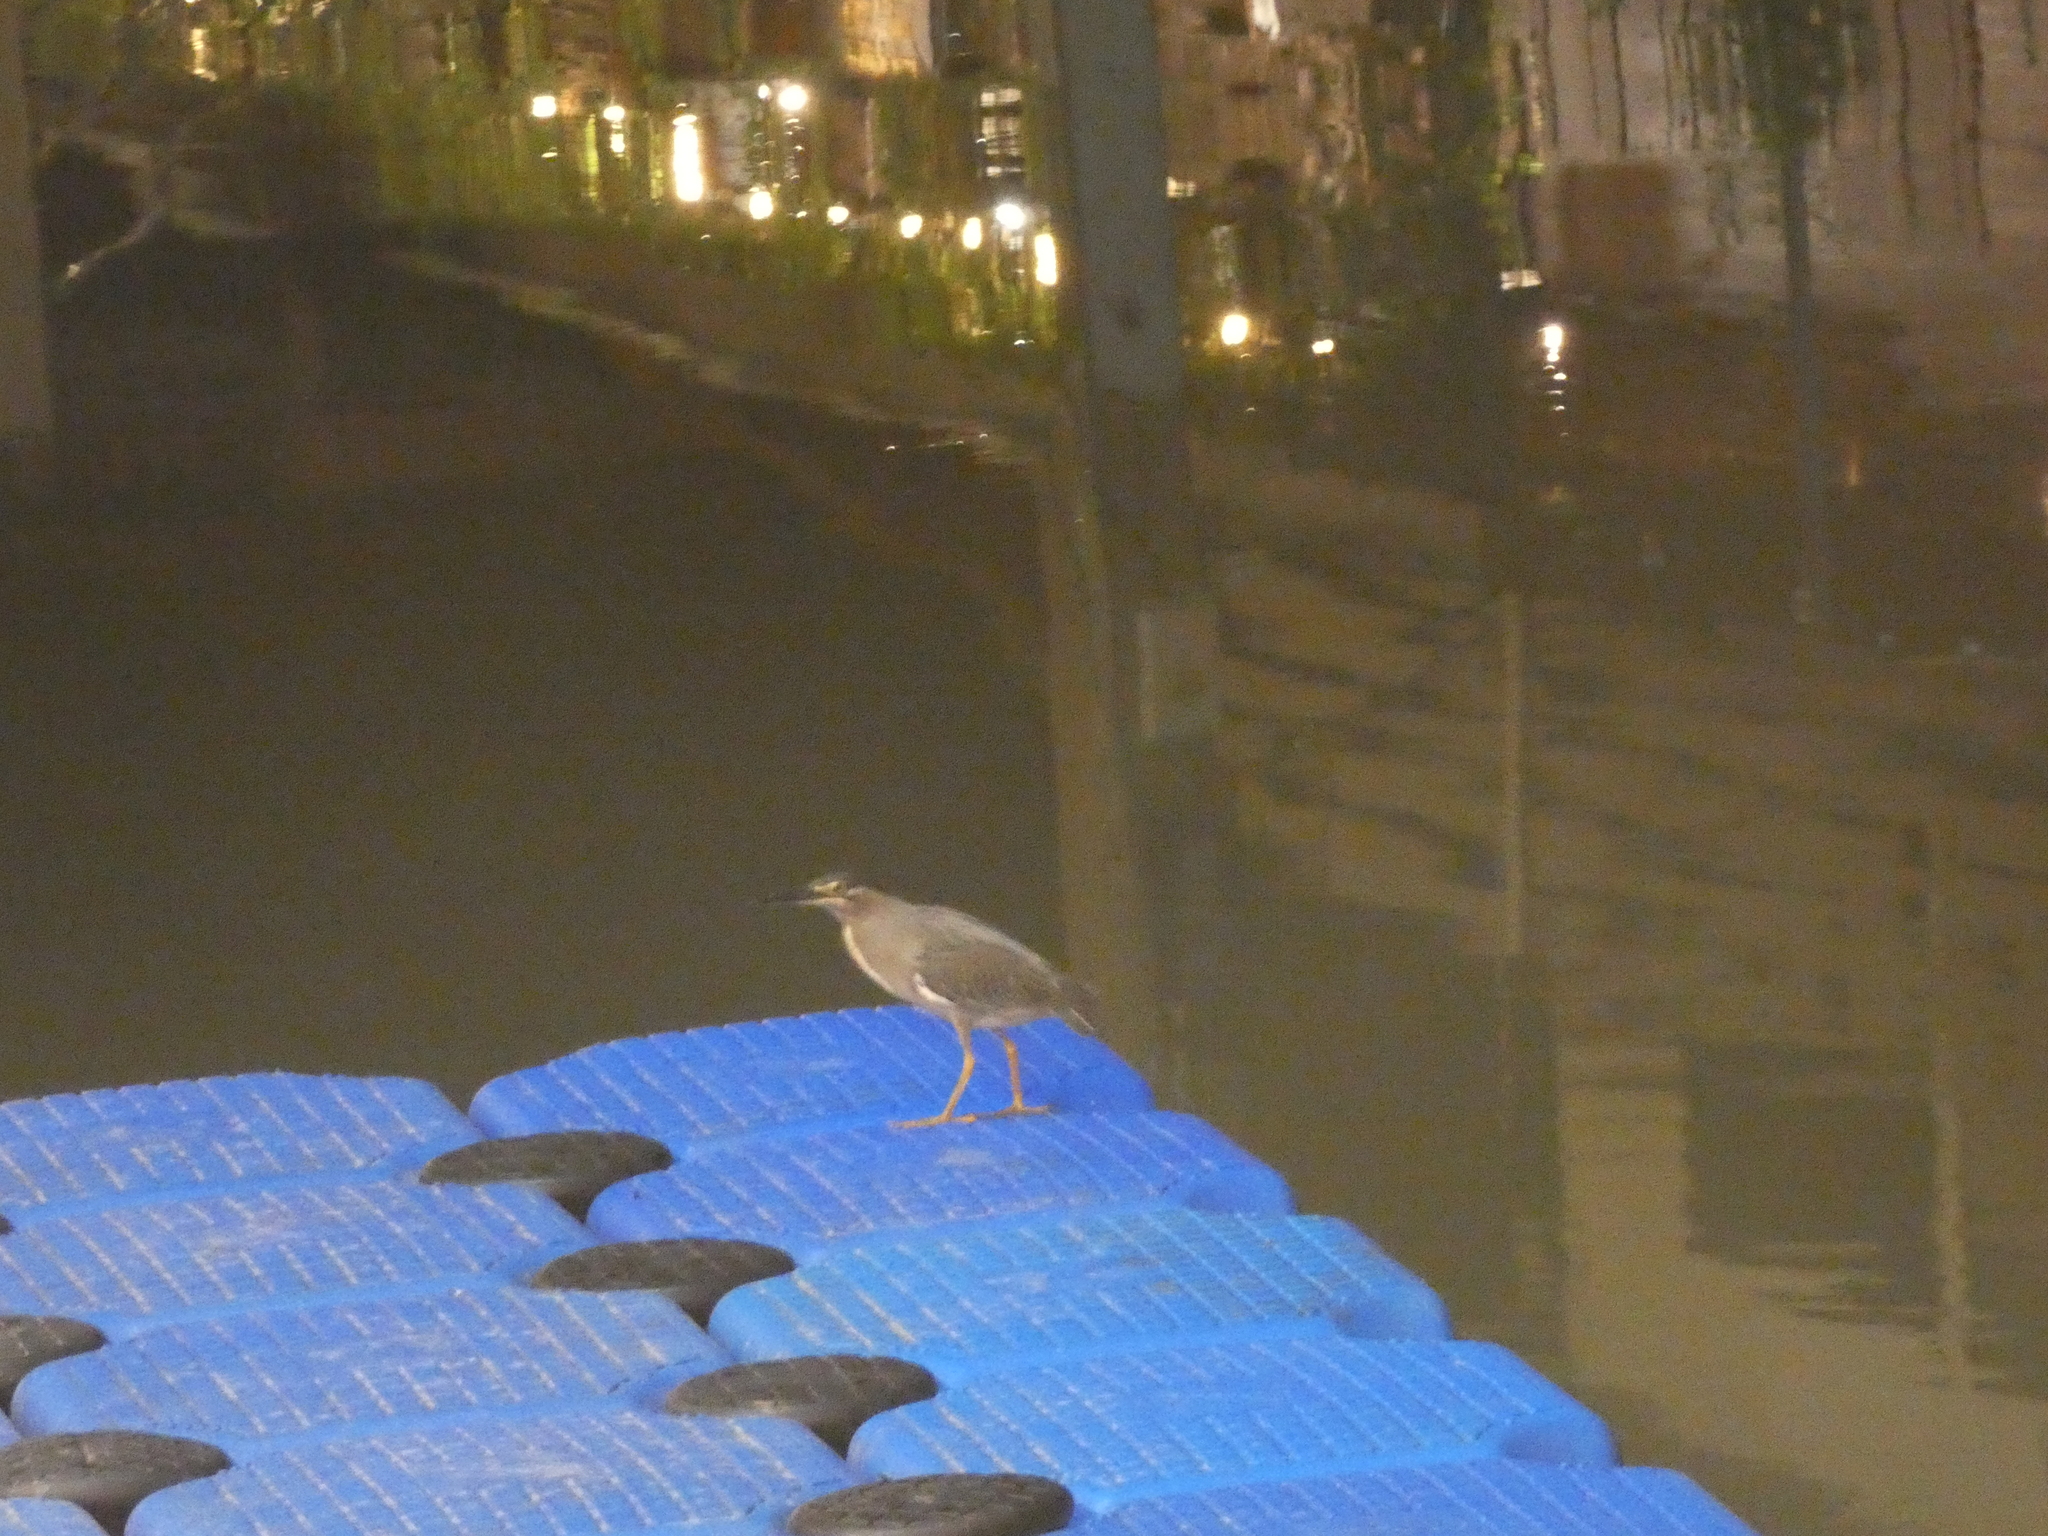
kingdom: Animalia
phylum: Chordata
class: Aves
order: Pelecaniformes
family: Ardeidae
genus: Butorides
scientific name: Butorides striata
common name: Striated heron
